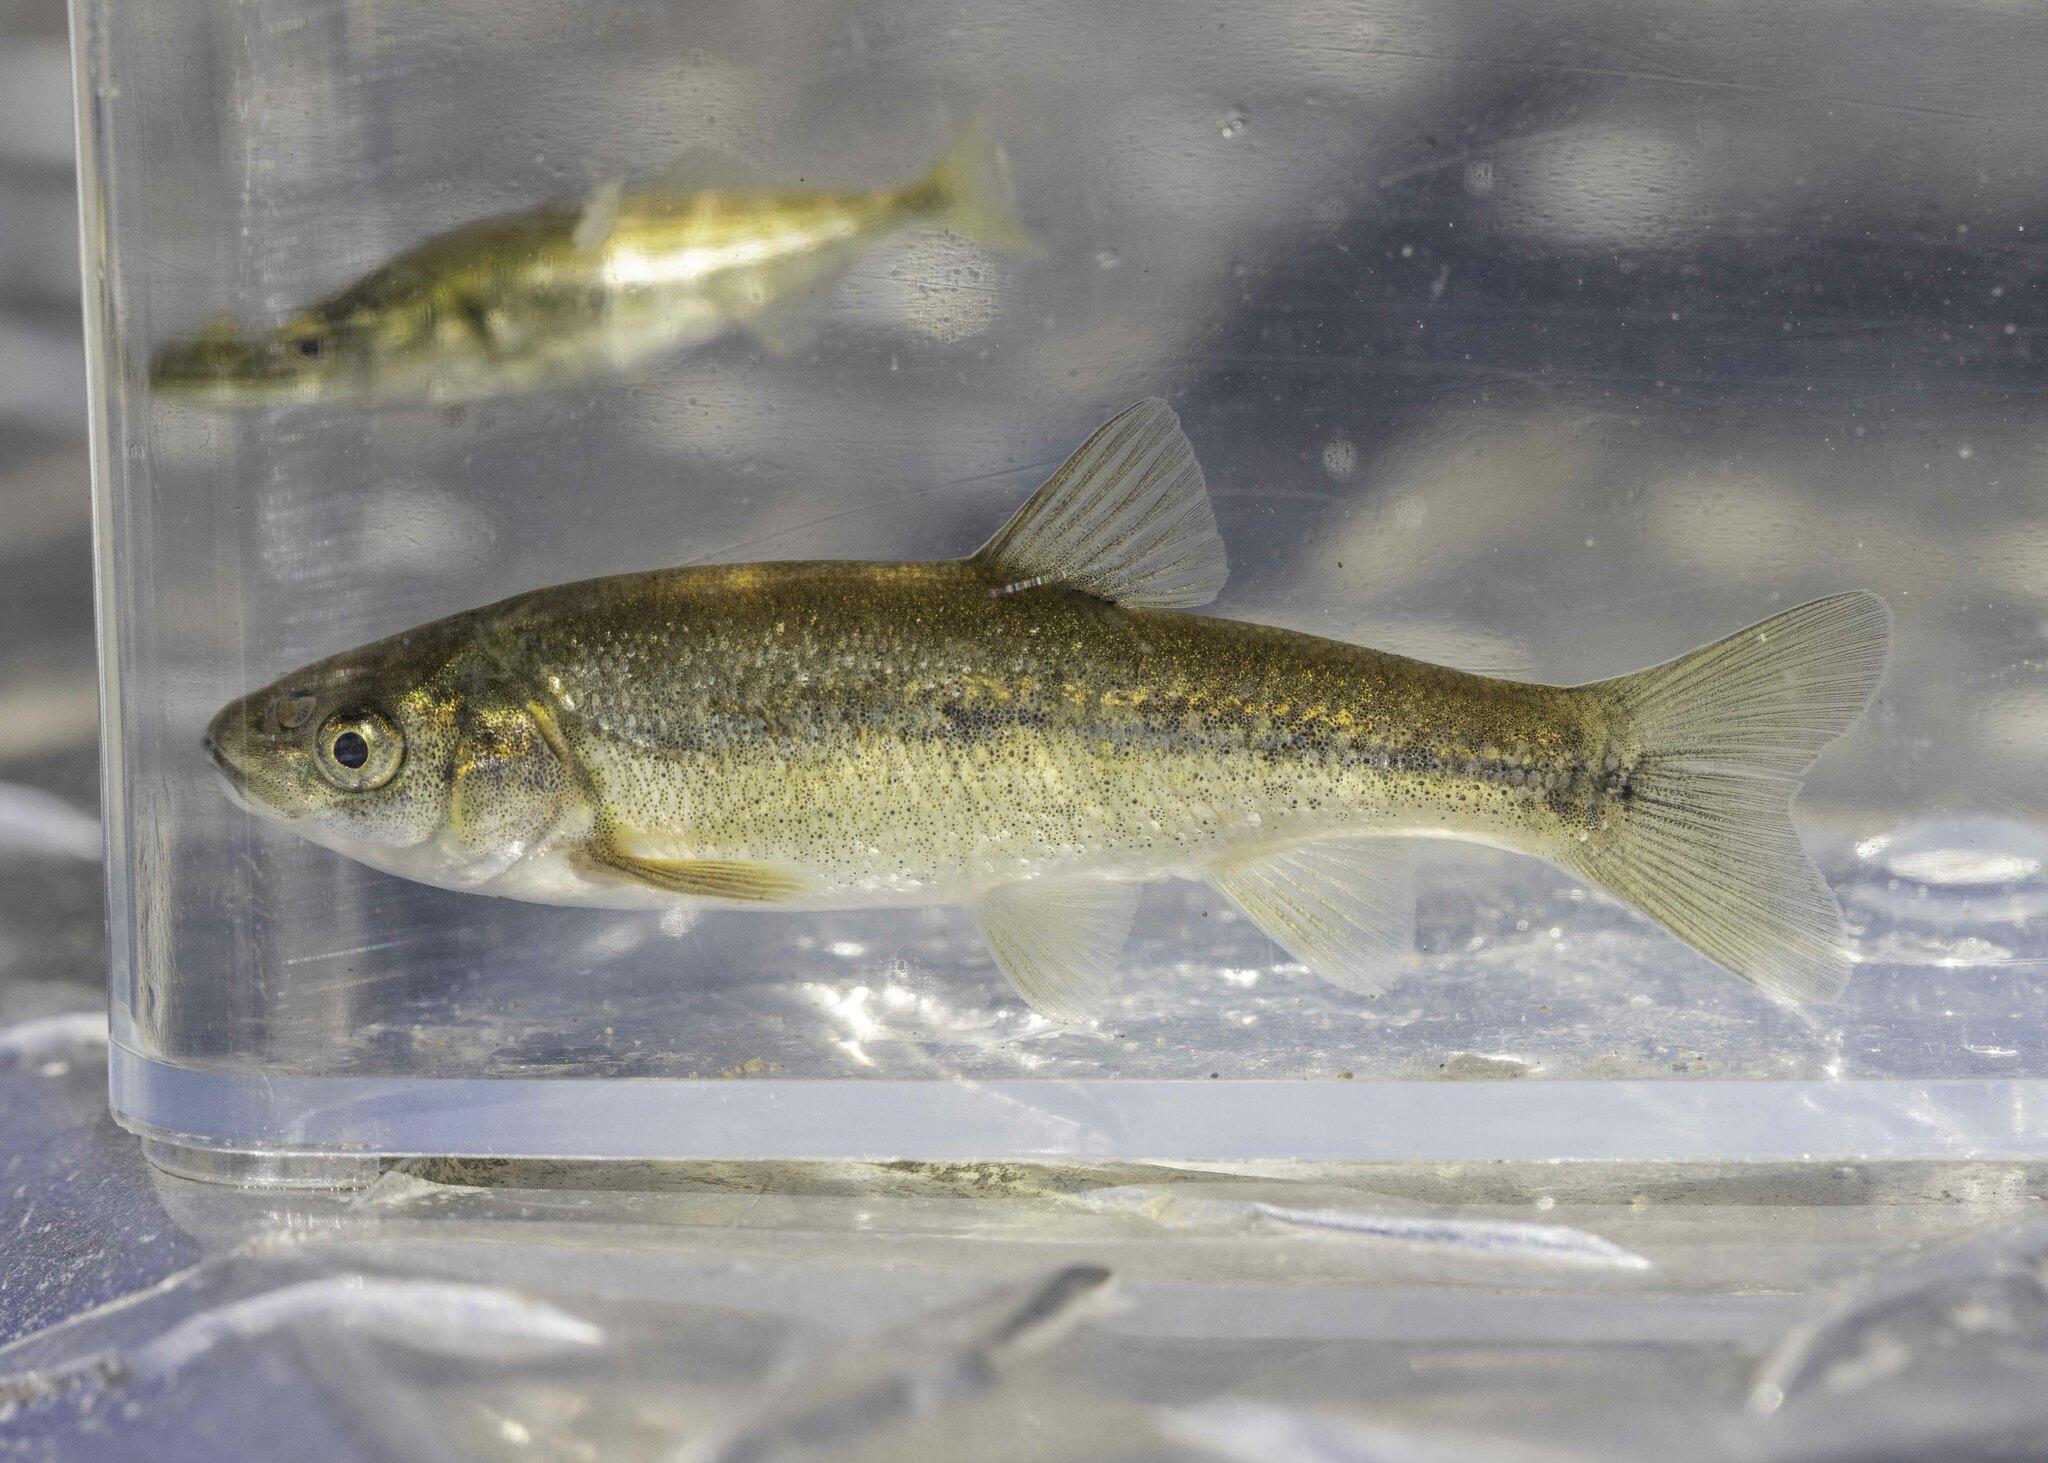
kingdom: Animalia
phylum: Chordata
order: Cypriniformes
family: Cyprinidae
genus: Gila
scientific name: Gila orcuttii
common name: Arroyo chub
